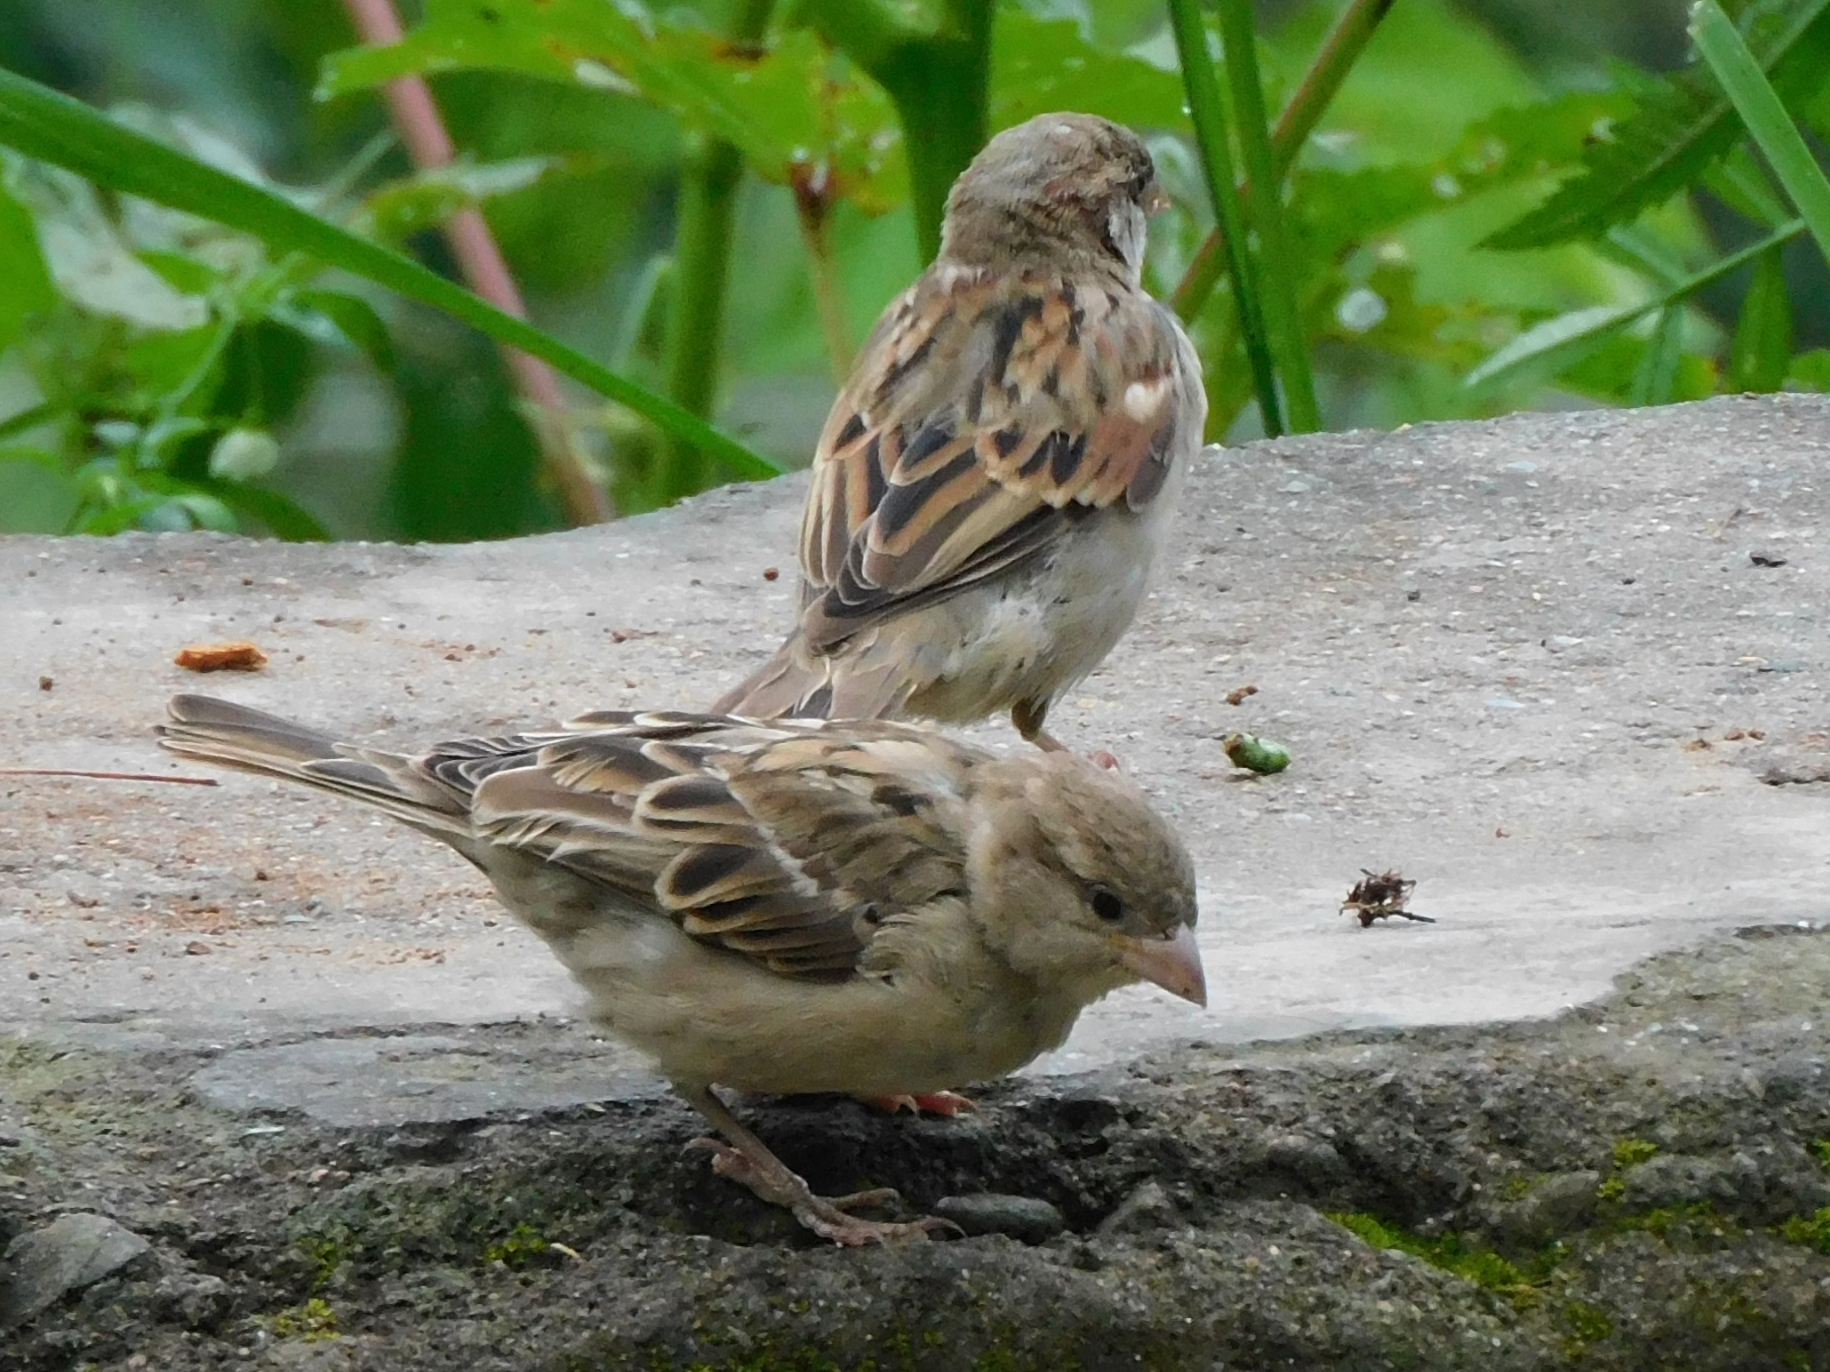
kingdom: Animalia
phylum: Chordata
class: Aves
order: Passeriformes
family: Passeridae
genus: Passer
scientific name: Passer domesticus
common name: House sparrow
